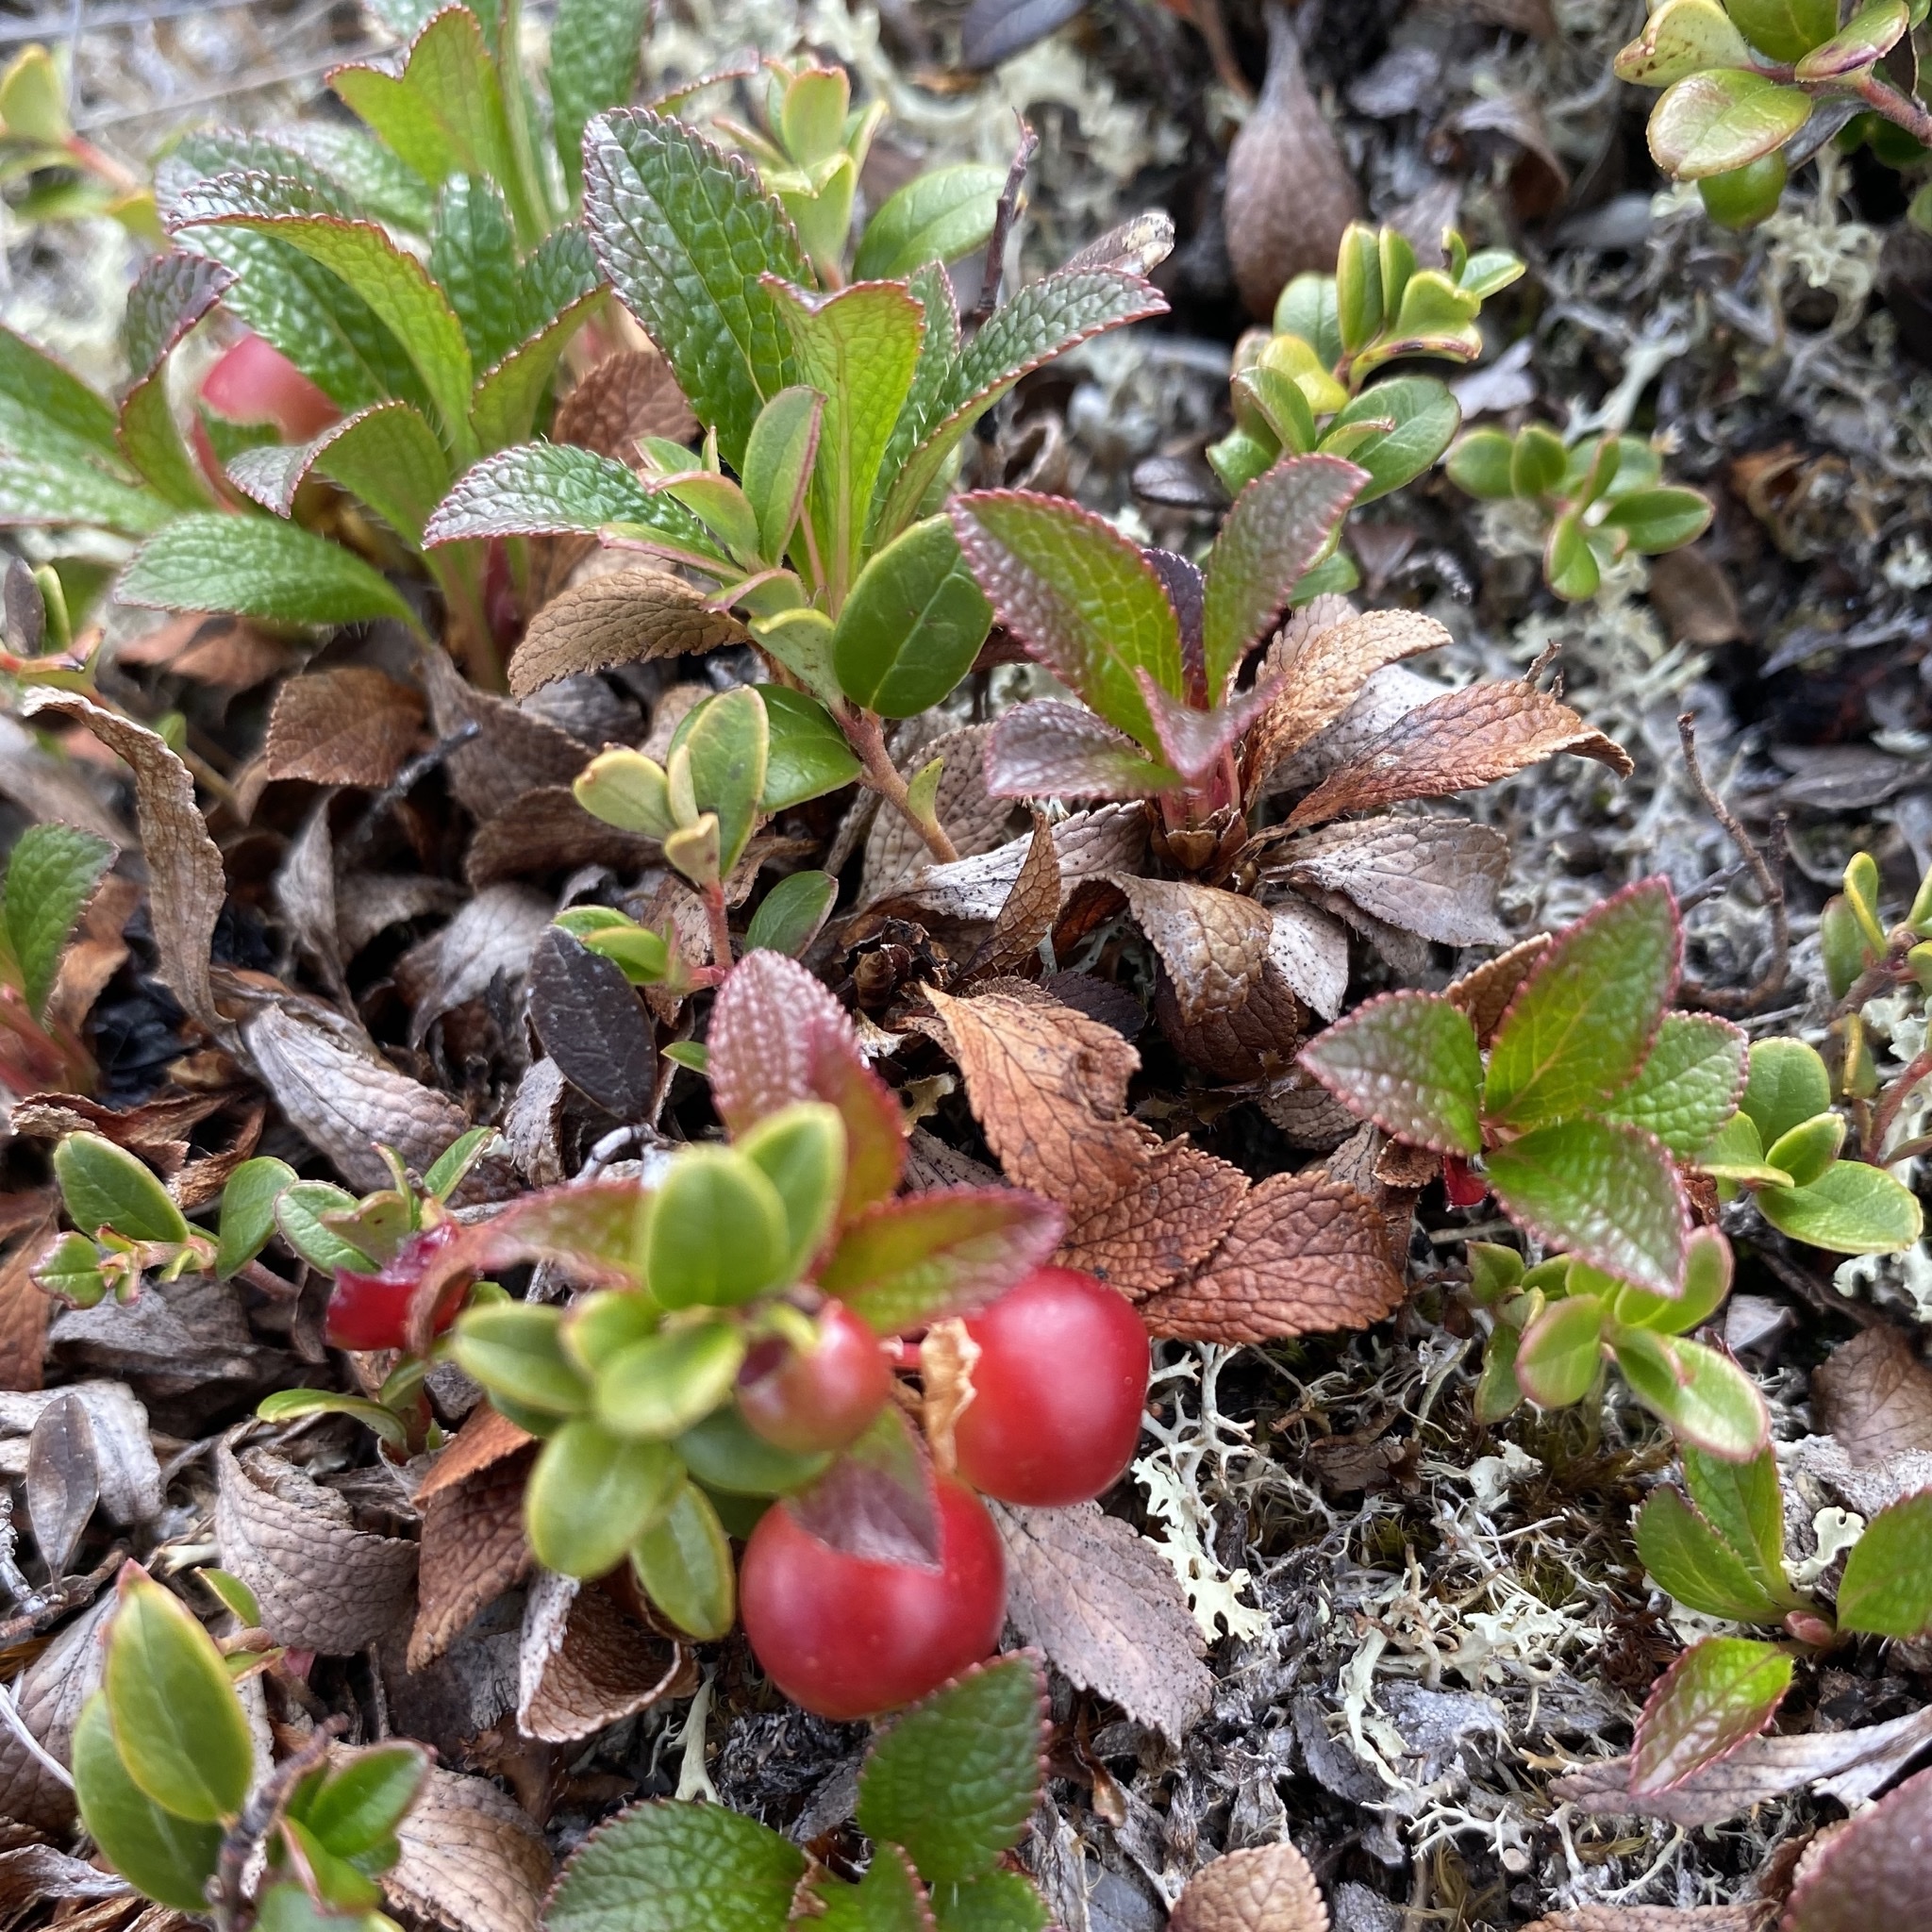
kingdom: Plantae
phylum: Tracheophyta
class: Magnoliopsida
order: Ericales
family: Ericaceae
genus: Arctostaphylos
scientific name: Arctostaphylos alpinus
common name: Alpine bearberry
